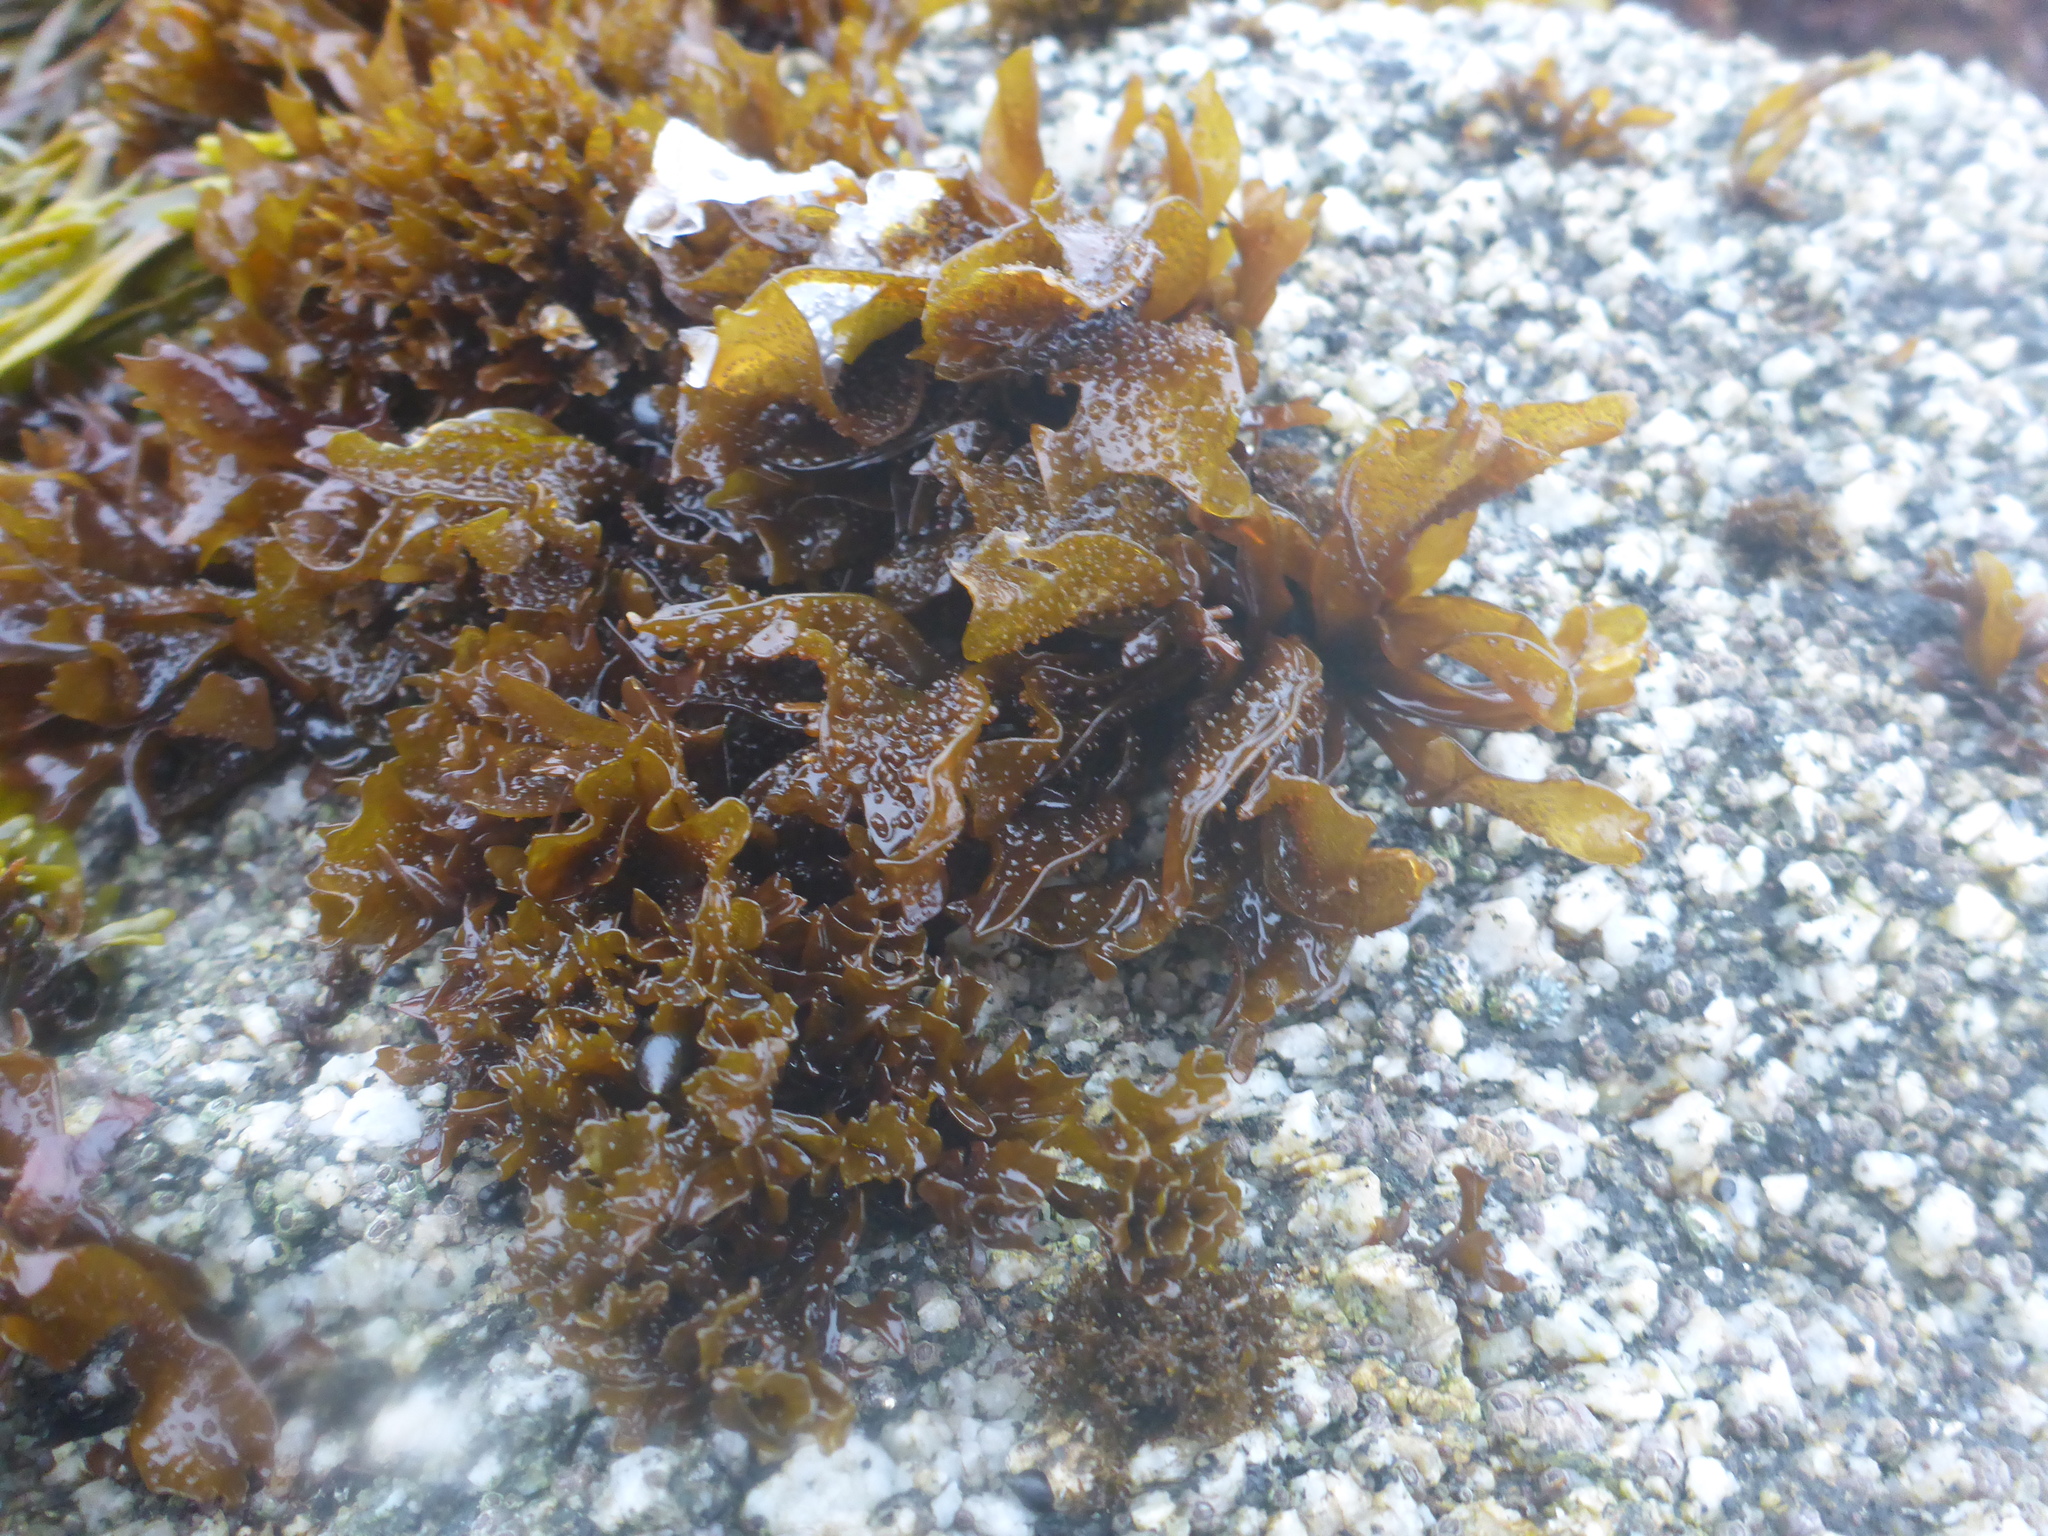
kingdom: Plantae
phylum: Rhodophyta
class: Florideophyceae
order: Gigartinales
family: Phyllophoraceae
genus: Mastocarpus
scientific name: Mastocarpus papillatus
